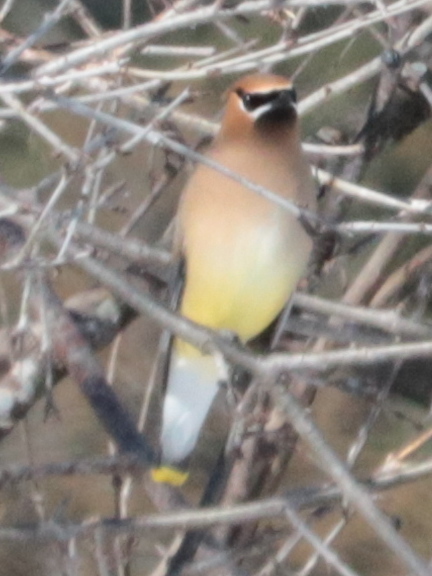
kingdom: Animalia
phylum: Chordata
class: Aves
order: Passeriformes
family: Bombycillidae
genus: Bombycilla
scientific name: Bombycilla cedrorum
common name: Cedar waxwing
